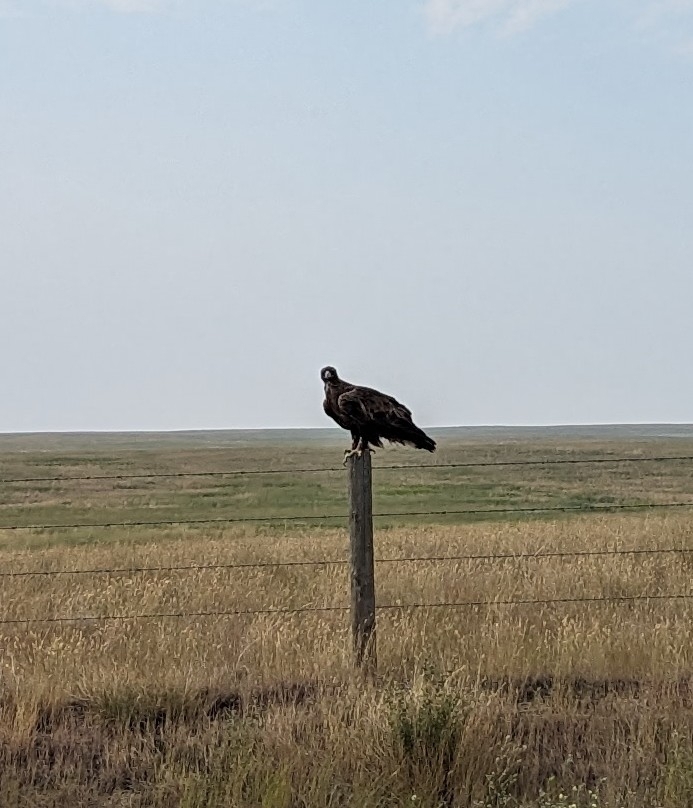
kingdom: Animalia
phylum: Chordata
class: Aves
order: Accipitriformes
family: Accipitridae
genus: Aquila
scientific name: Aquila chrysaetos
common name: Golden eagle
